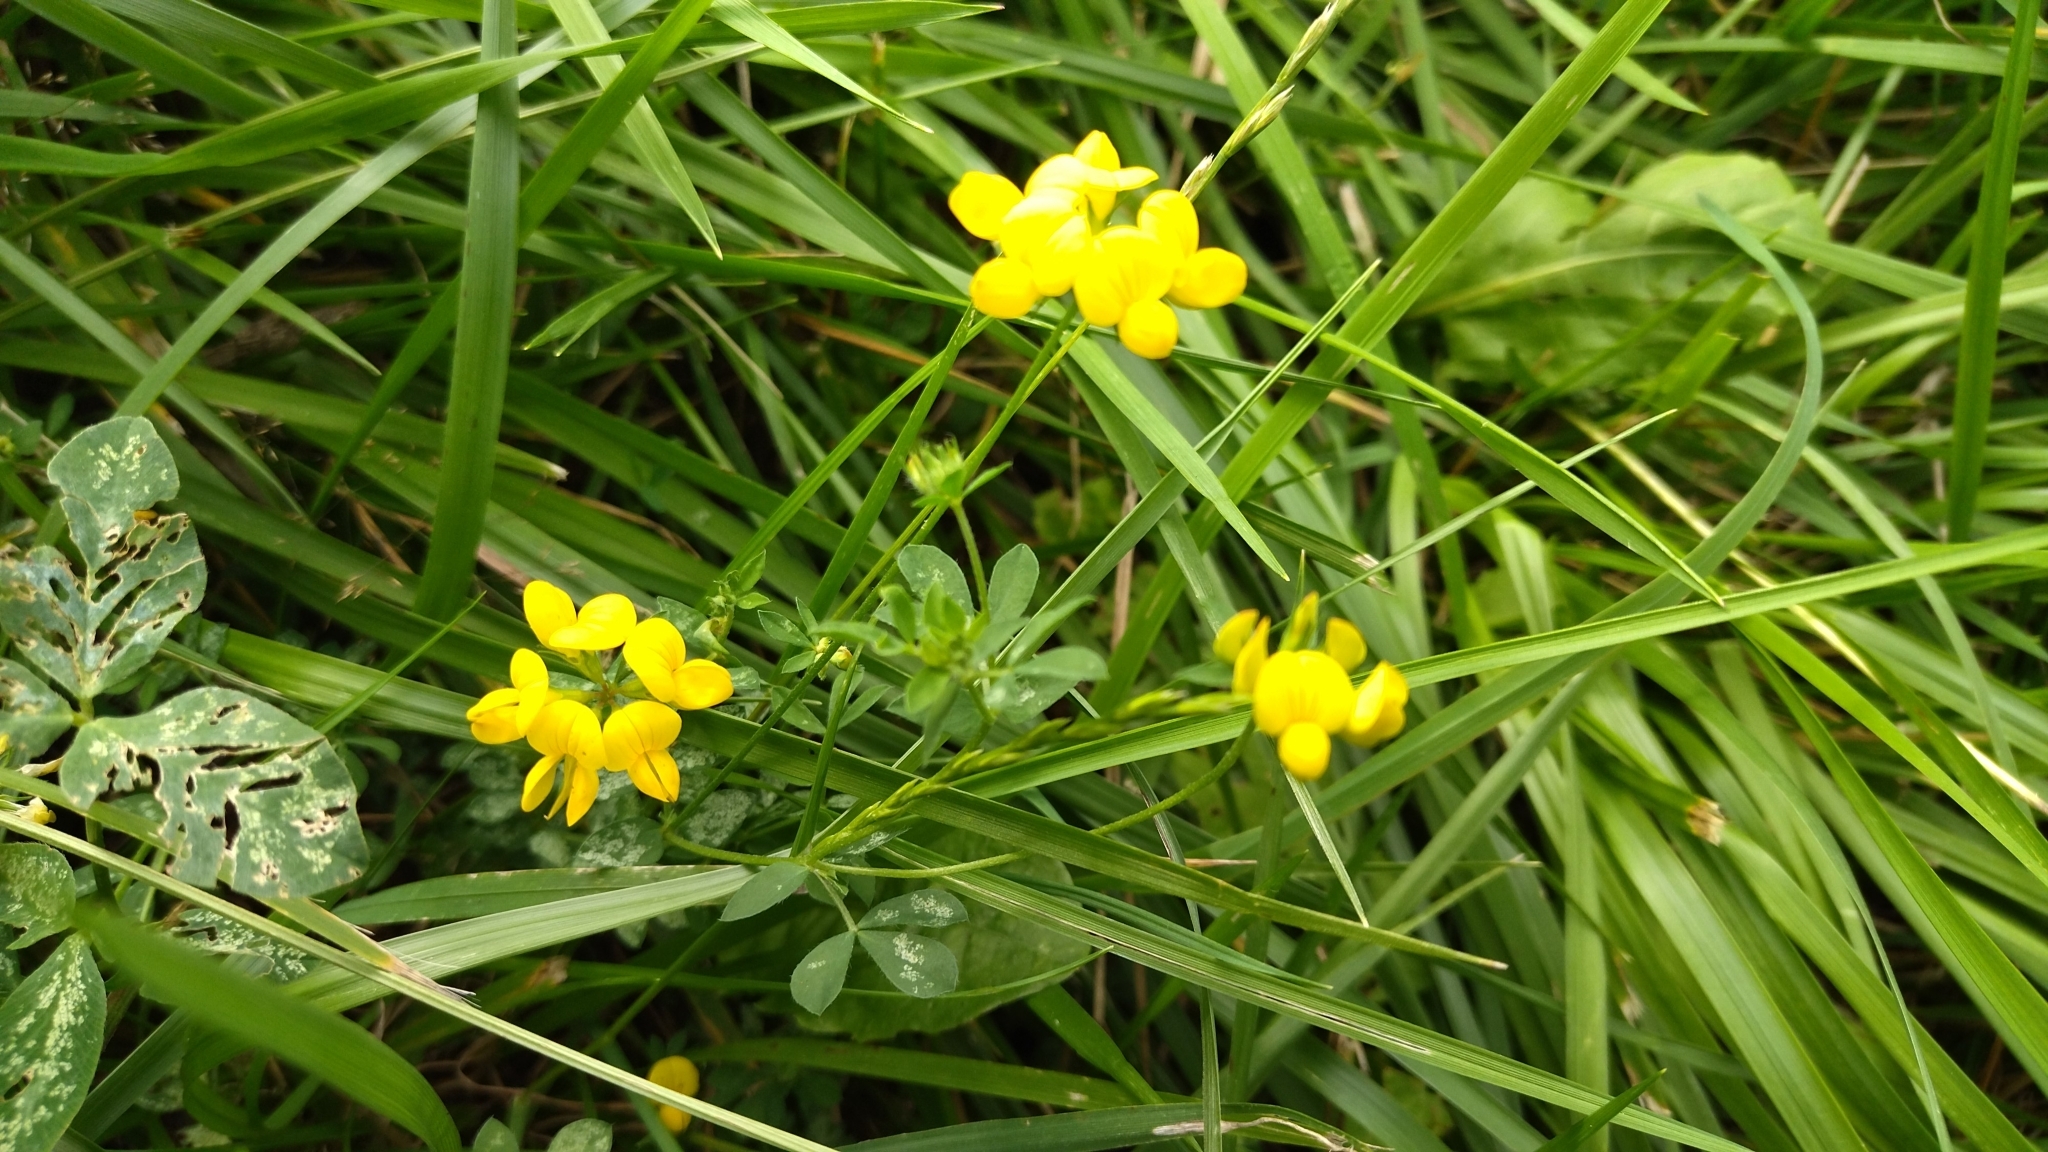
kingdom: Plantae
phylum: Tracheophyta
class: Magnoliopsida
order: Fabales
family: Fabaceae
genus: Lotus
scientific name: Lotus corniculatus
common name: Common bird's-foot-trefoil
